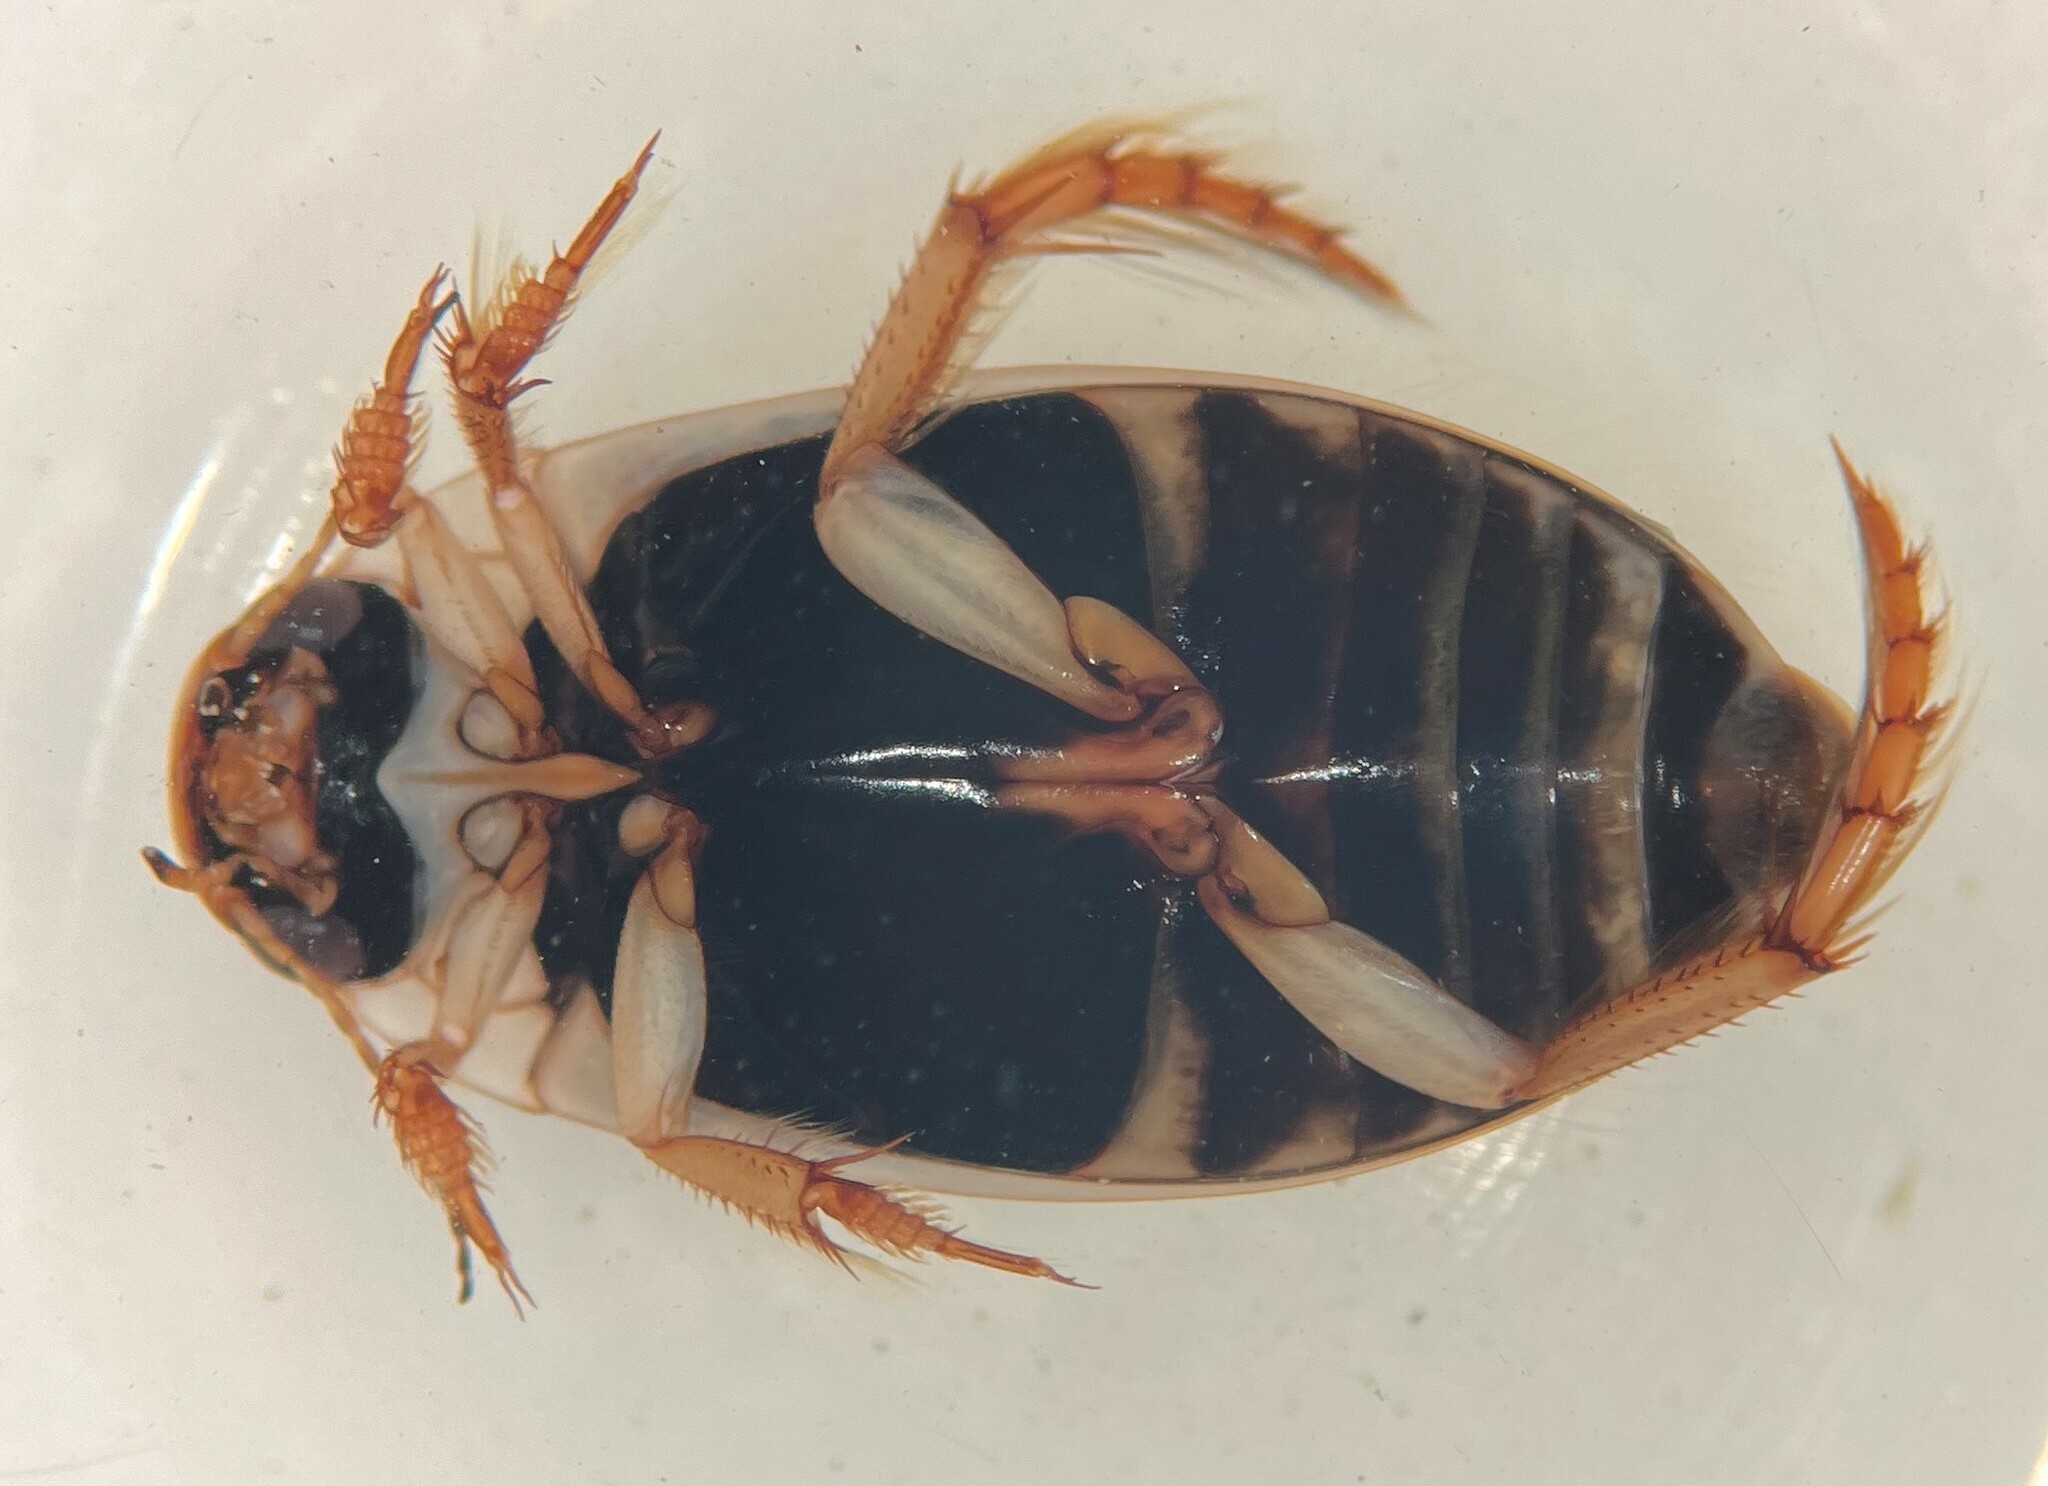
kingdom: Animalia
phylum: Arthropoda
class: Insecta
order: Coleoptera
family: Dytiscidae
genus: Rhantus
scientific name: Rhantus binotatus
